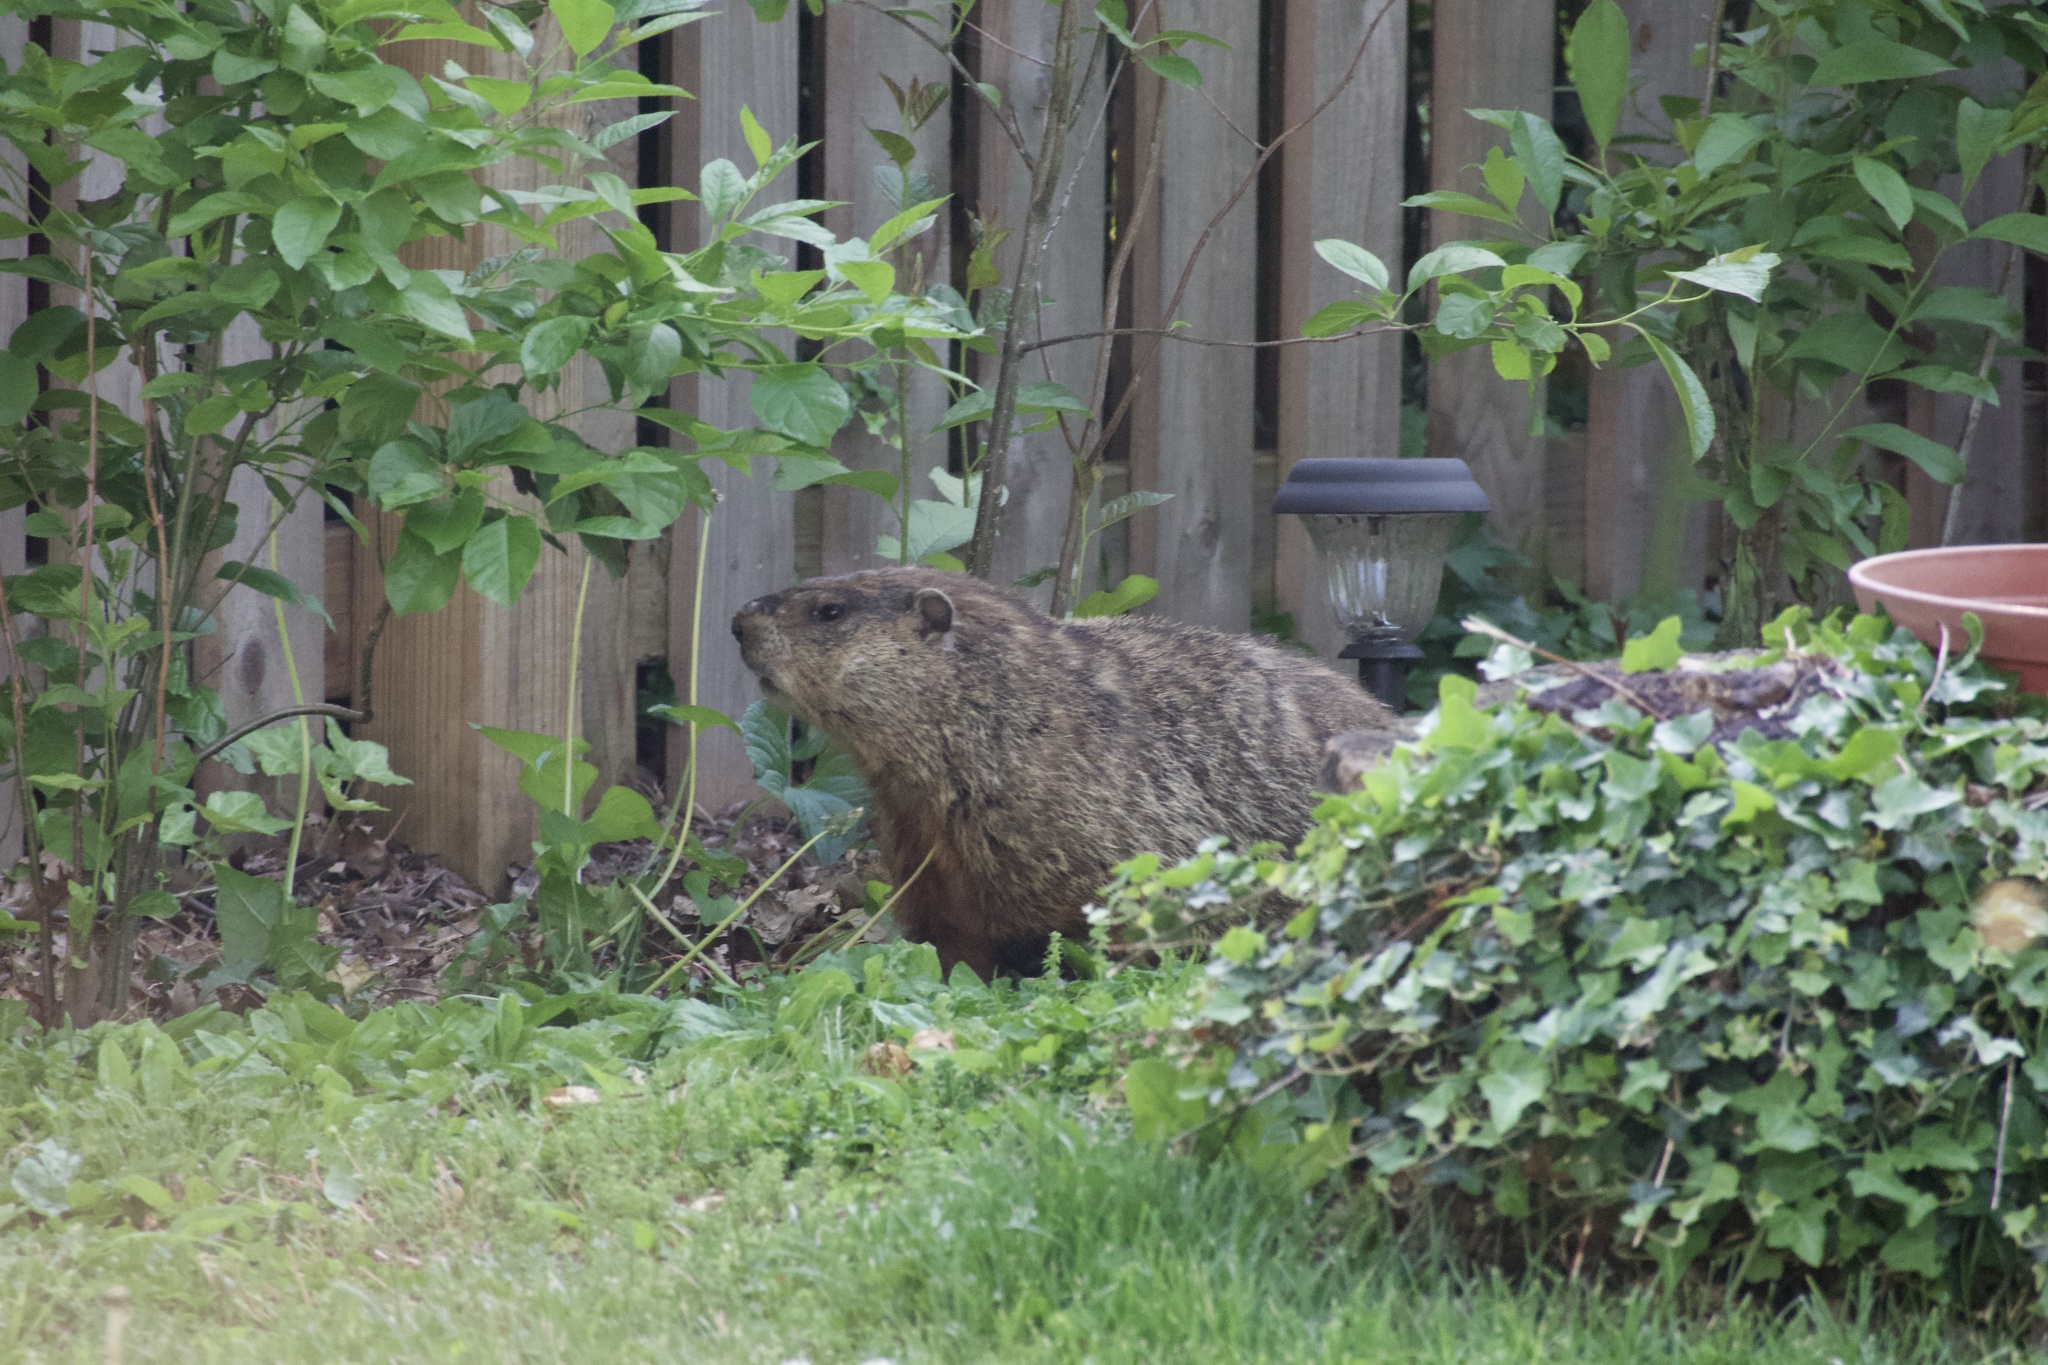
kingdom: Animalia
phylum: Chordata
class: Mammalia
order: Rodentia
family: Sciuridae
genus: Marmota
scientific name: Marmota monax
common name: Groundhog
